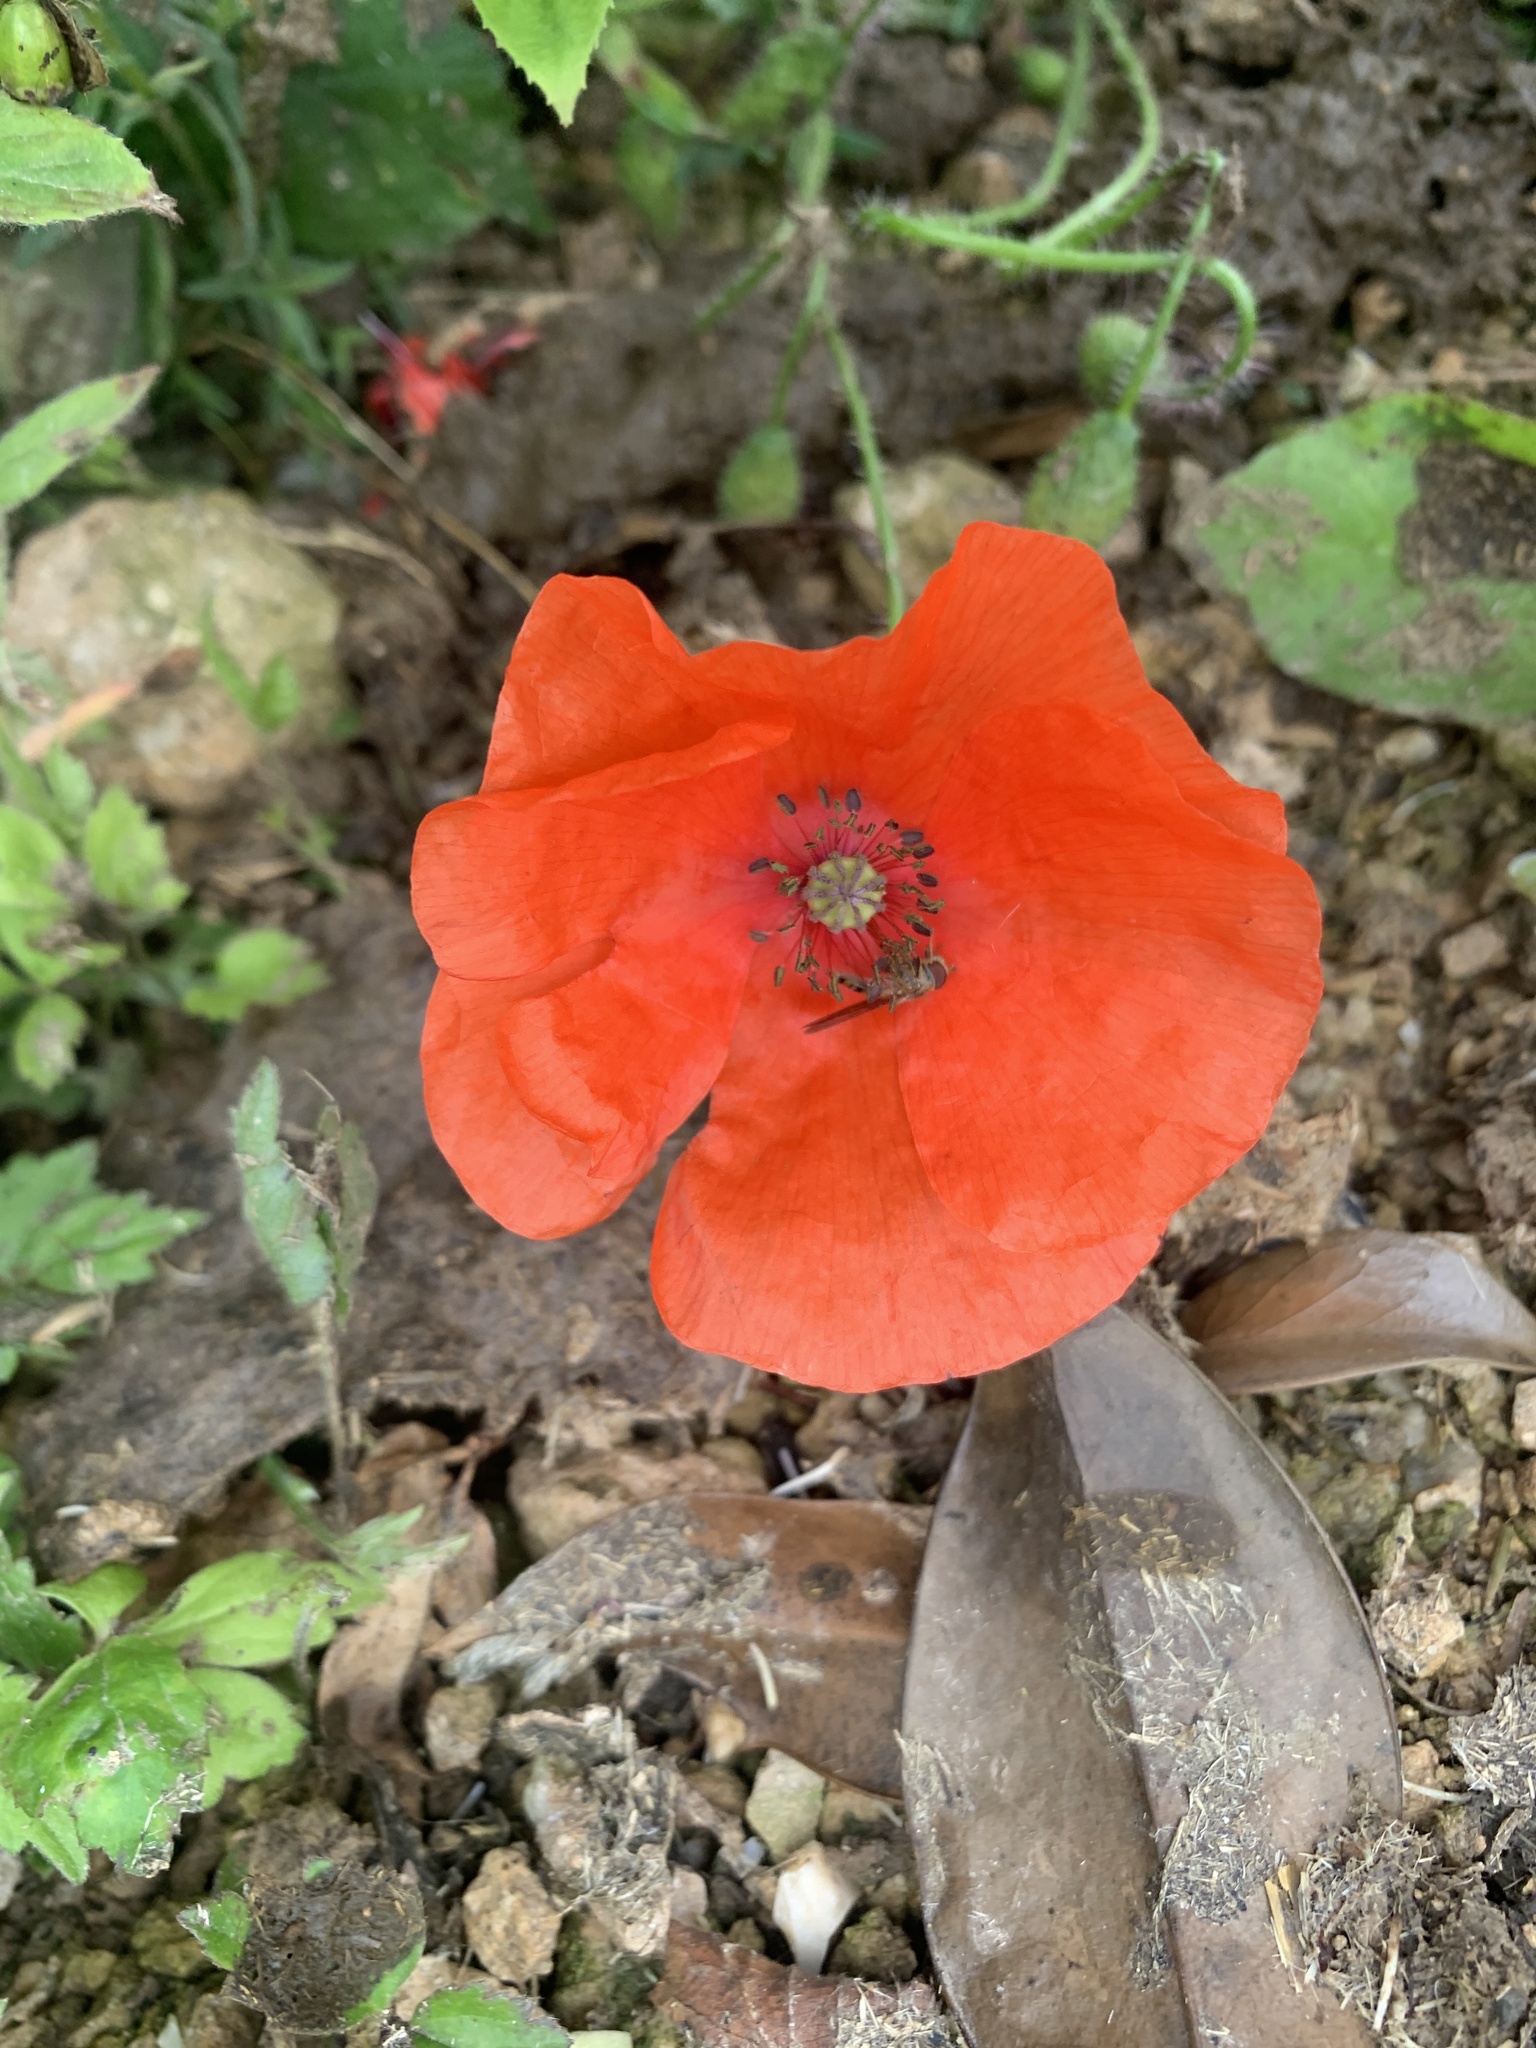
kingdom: Plantae
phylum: Tracheophyta
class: Magnoliopsida
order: Ranunculales
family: Papaveraceae
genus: Papaver
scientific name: Papaver rhoeas
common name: Corn poppy
